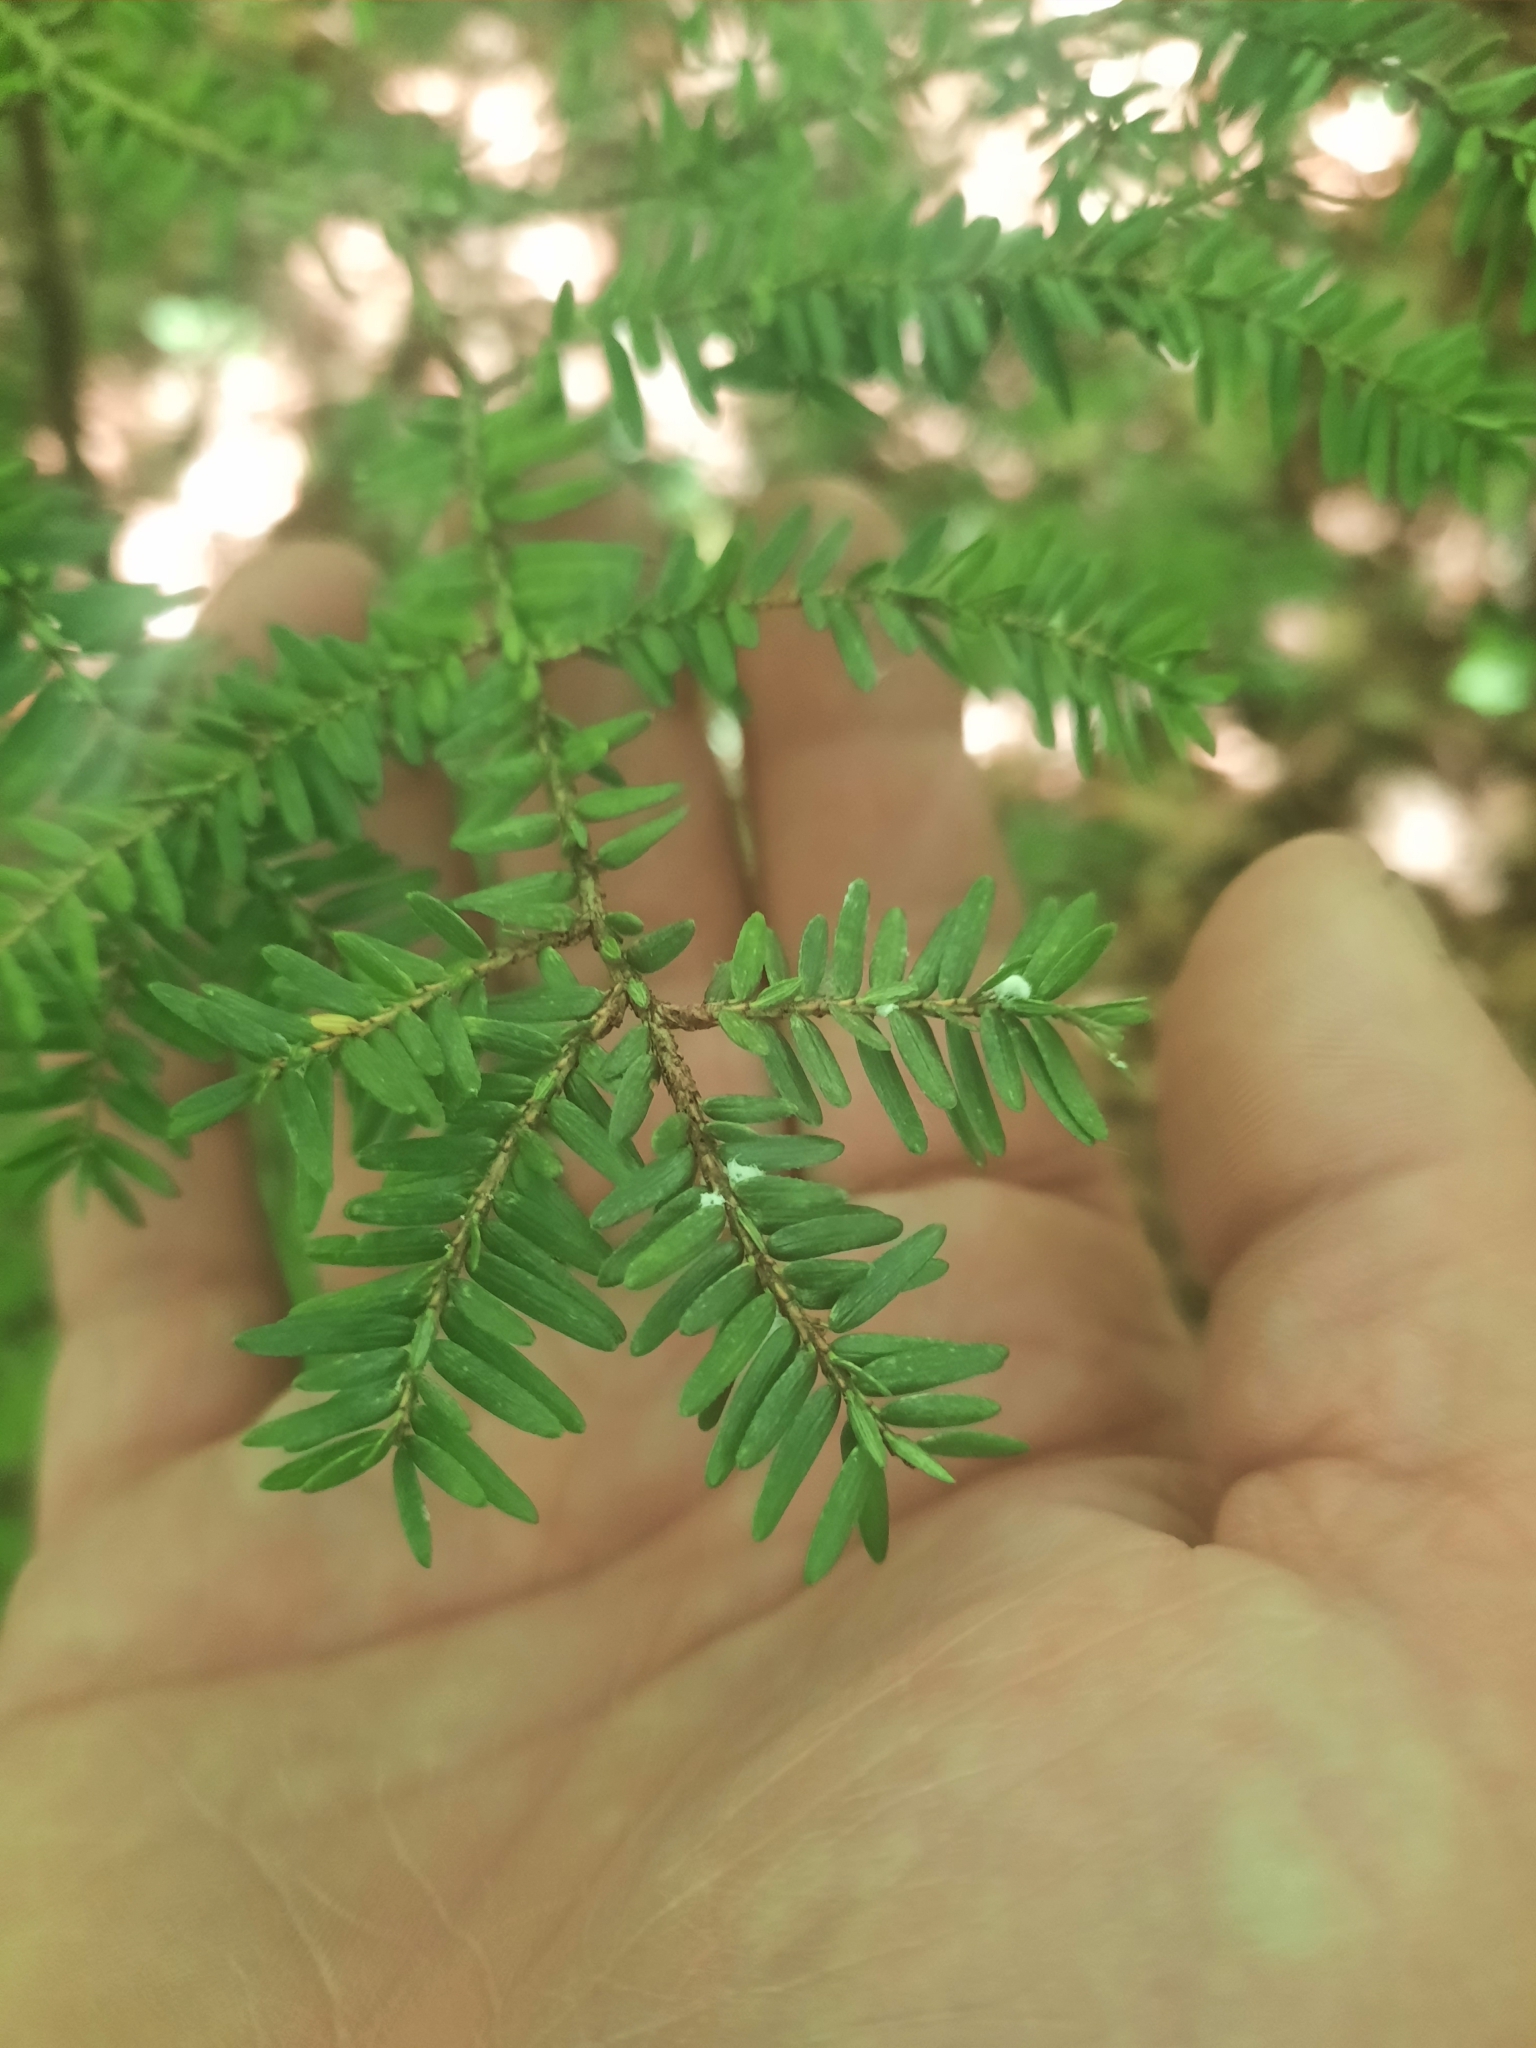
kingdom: Animalia
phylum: Arthropoda
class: Insecta
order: Hemiptera
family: Adelgidae
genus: Adelges
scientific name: Adelges tsugae
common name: Hemlock woolly adelgid
